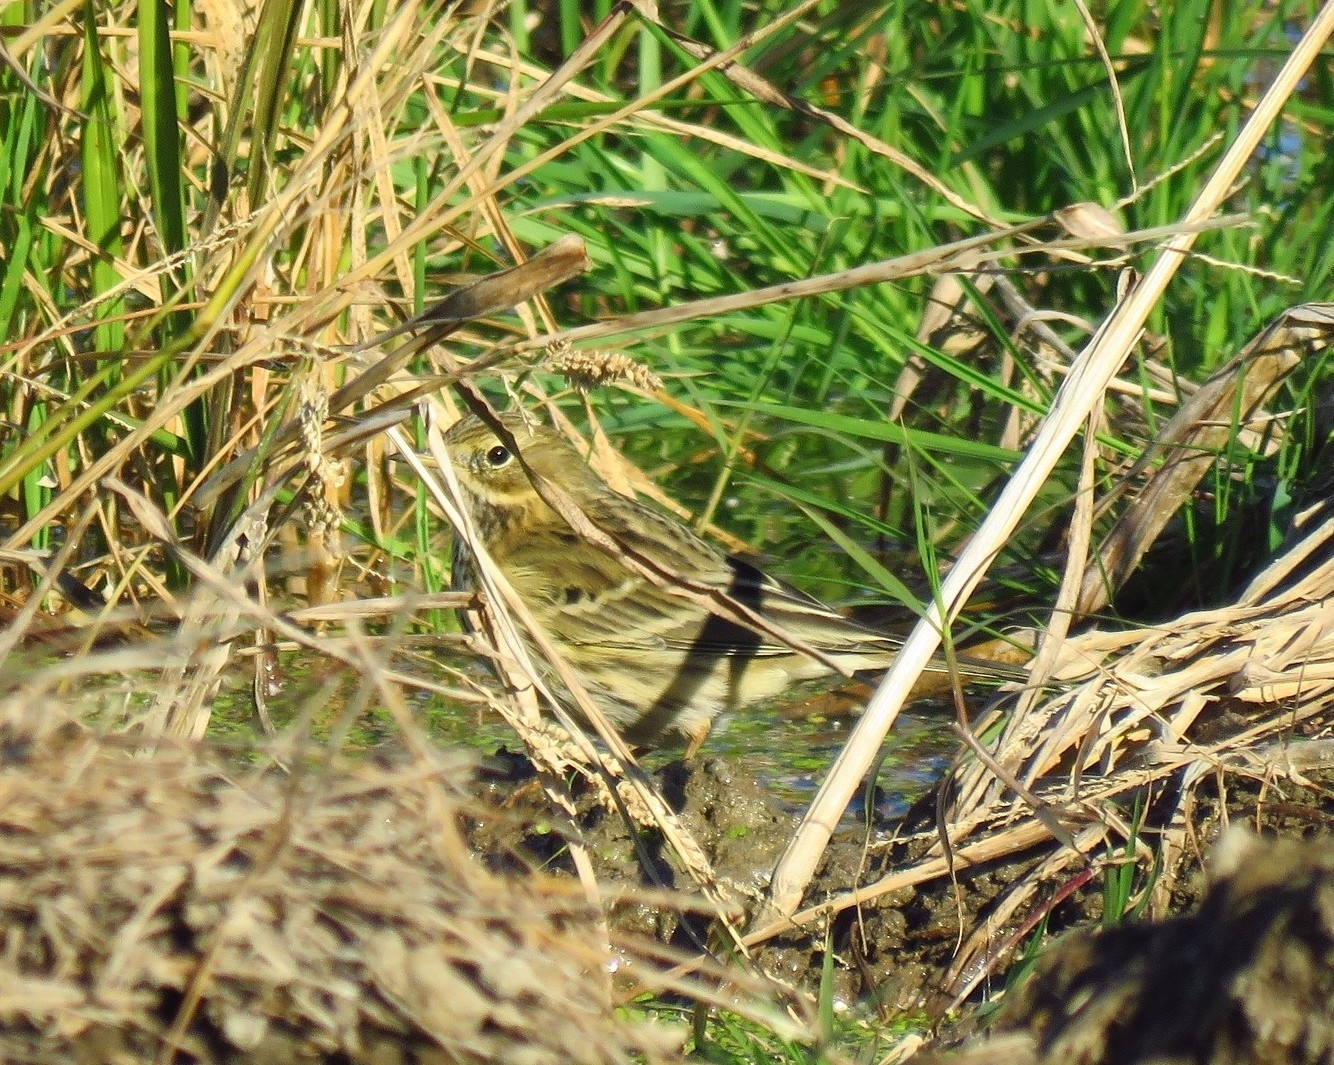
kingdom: Animalia
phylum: Chordata
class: Aves
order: Passeriformes
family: Motacillidae
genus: Anthus
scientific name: Anthus pratensis
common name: Meadow pipit
